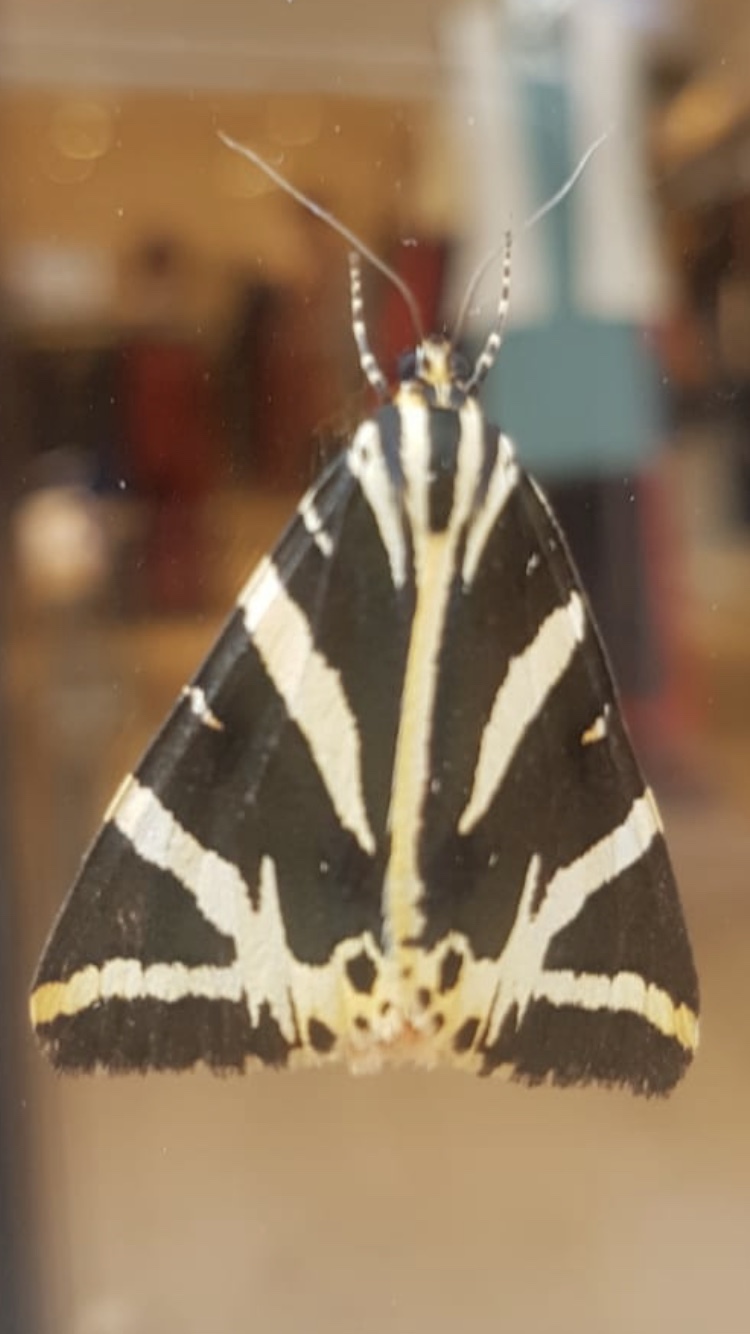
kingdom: Animalia
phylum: Arthropoda
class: Insecta
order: Lepidoptera
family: Erebidae
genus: Euplagia
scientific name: Euplagia quadripunctaria
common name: Jersey tiger
